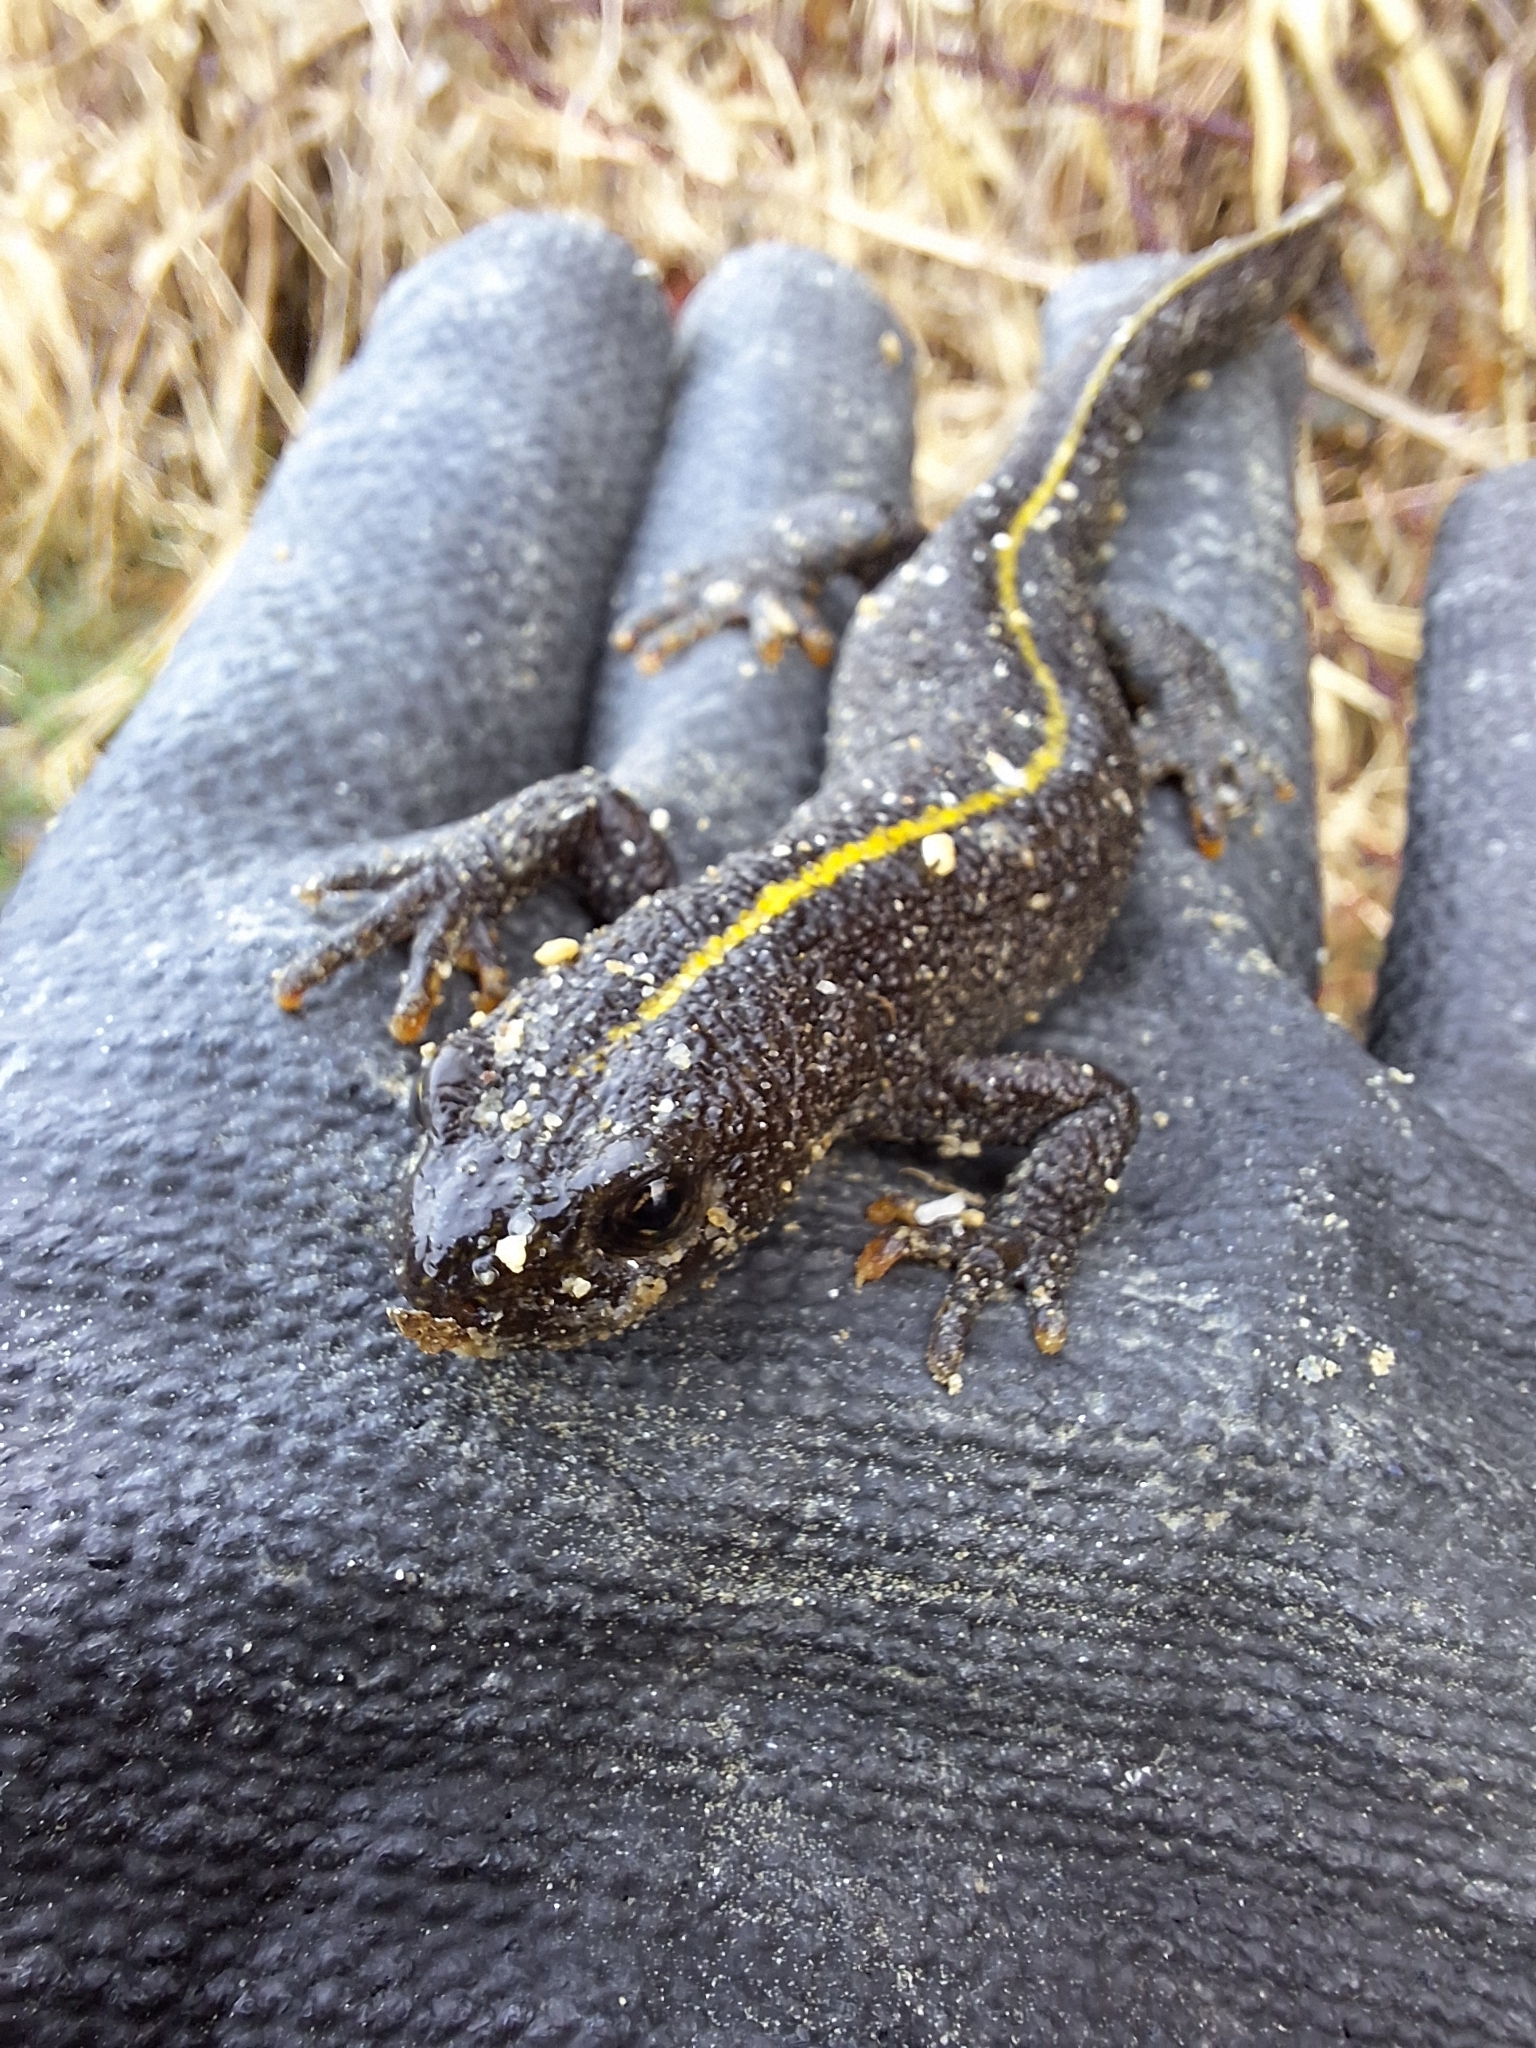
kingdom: Animalia
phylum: Chordata
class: Amphibia
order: Caudata
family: Salamandridae
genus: Triturus
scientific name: Triturus carnifex
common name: Italian crested newt
